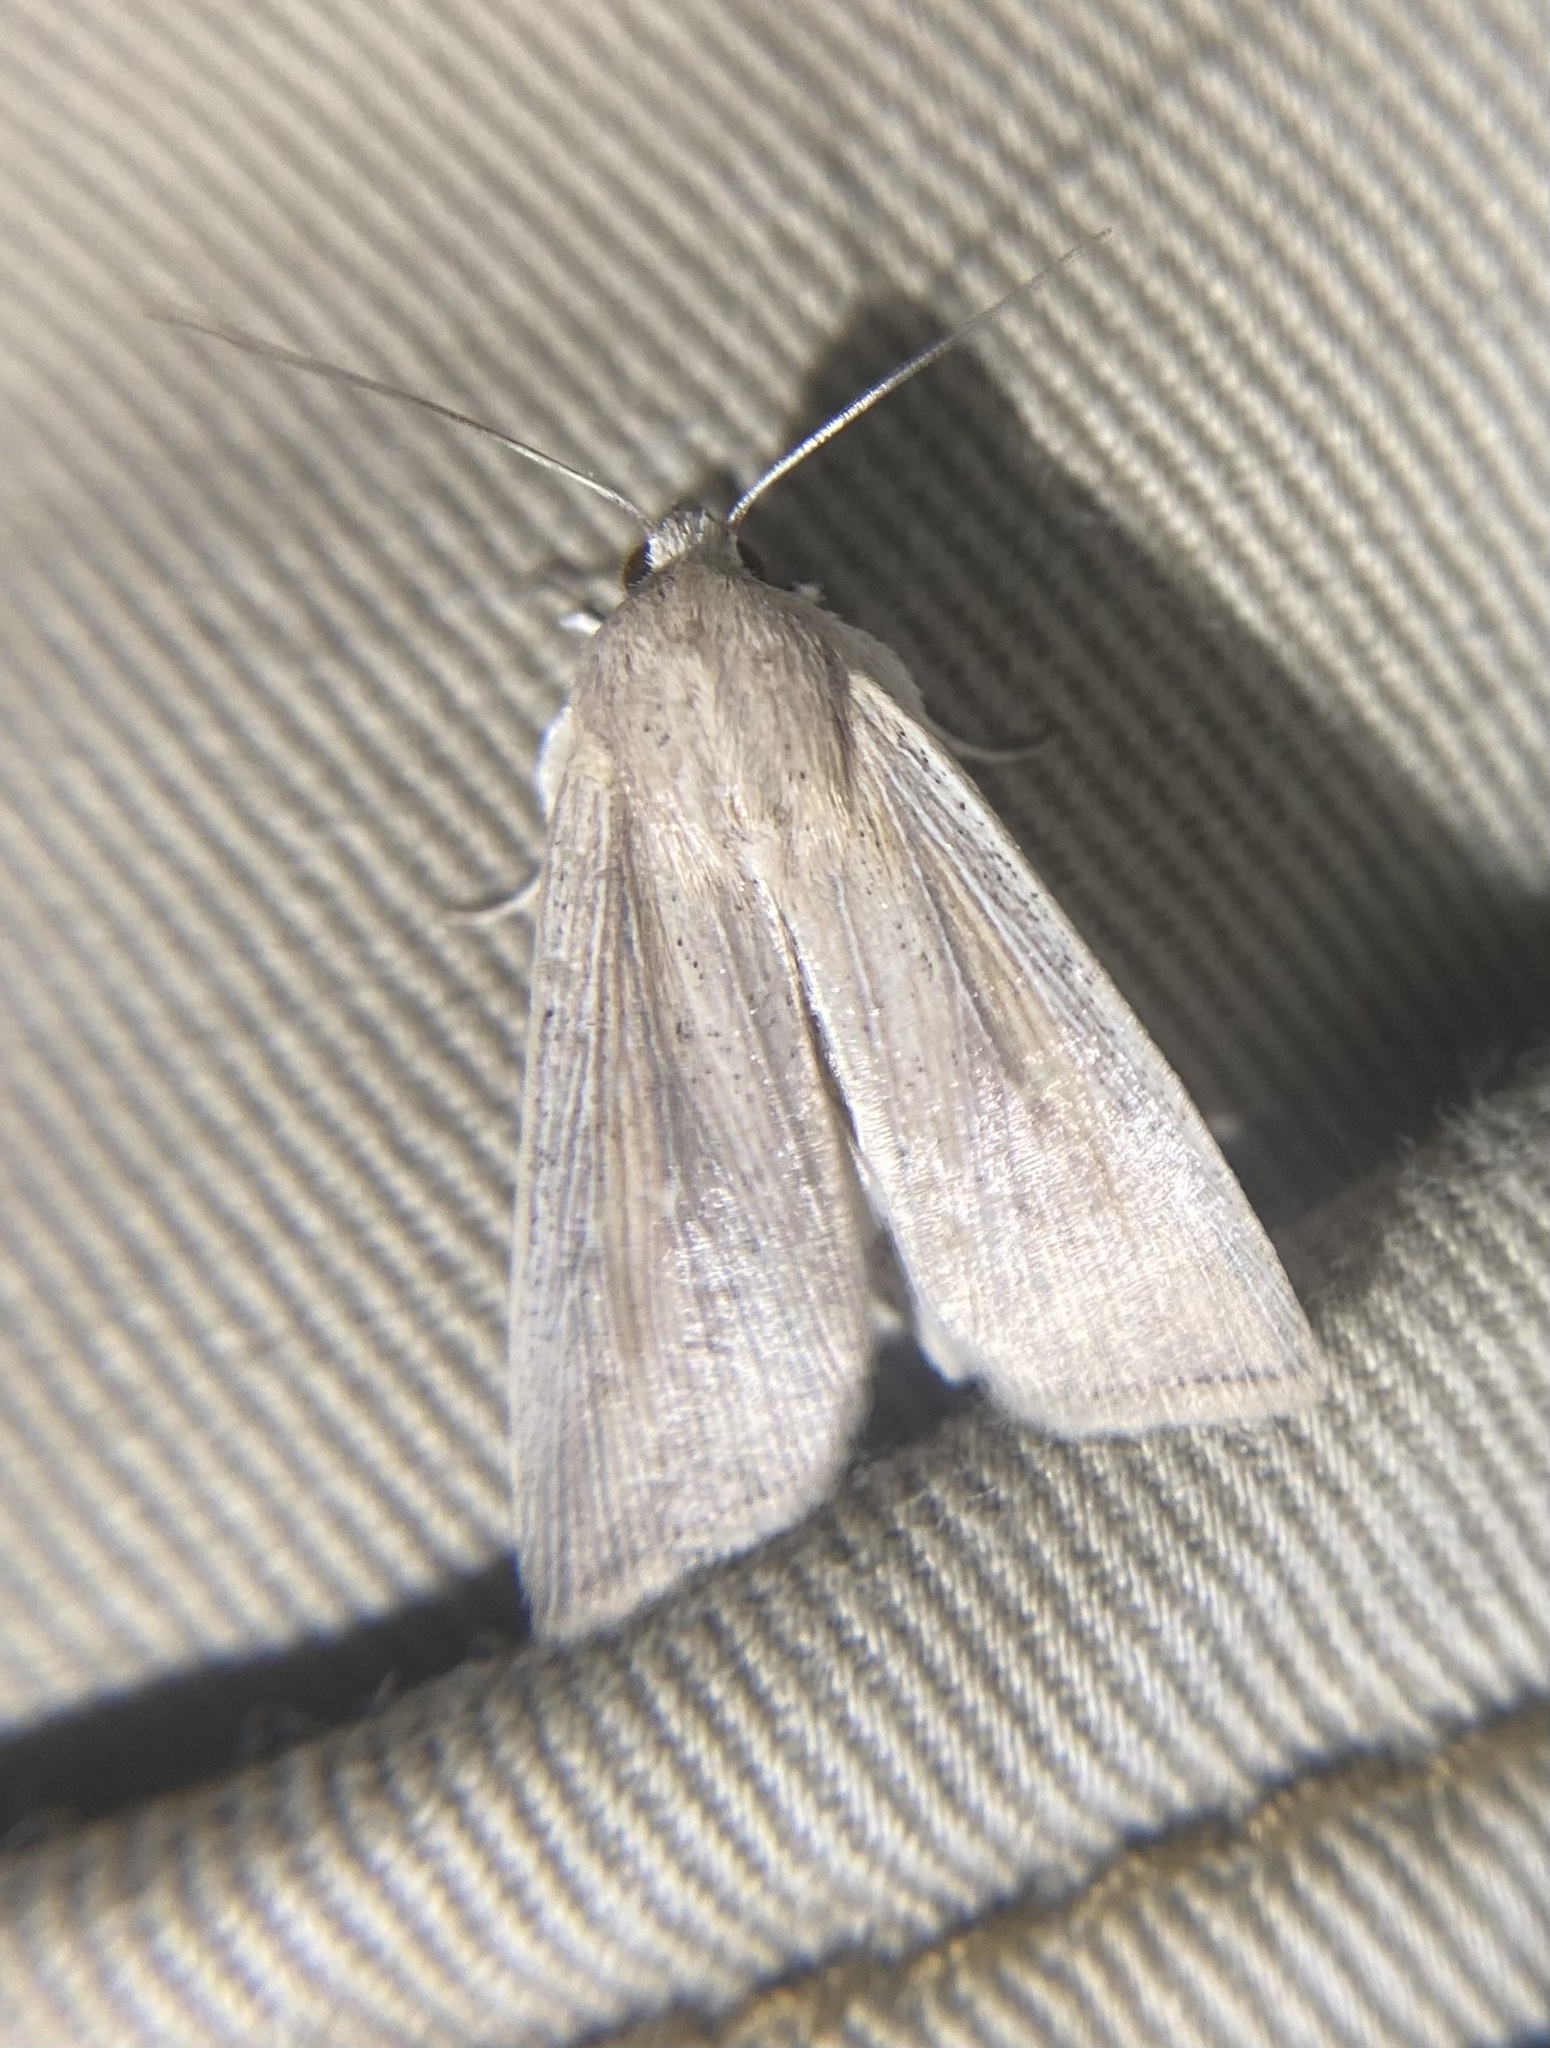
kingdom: Animalia
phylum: Arthropoda
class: Insecta
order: Lepidoptera
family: Noctuidae
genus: Leucania
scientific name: Leucania linita
